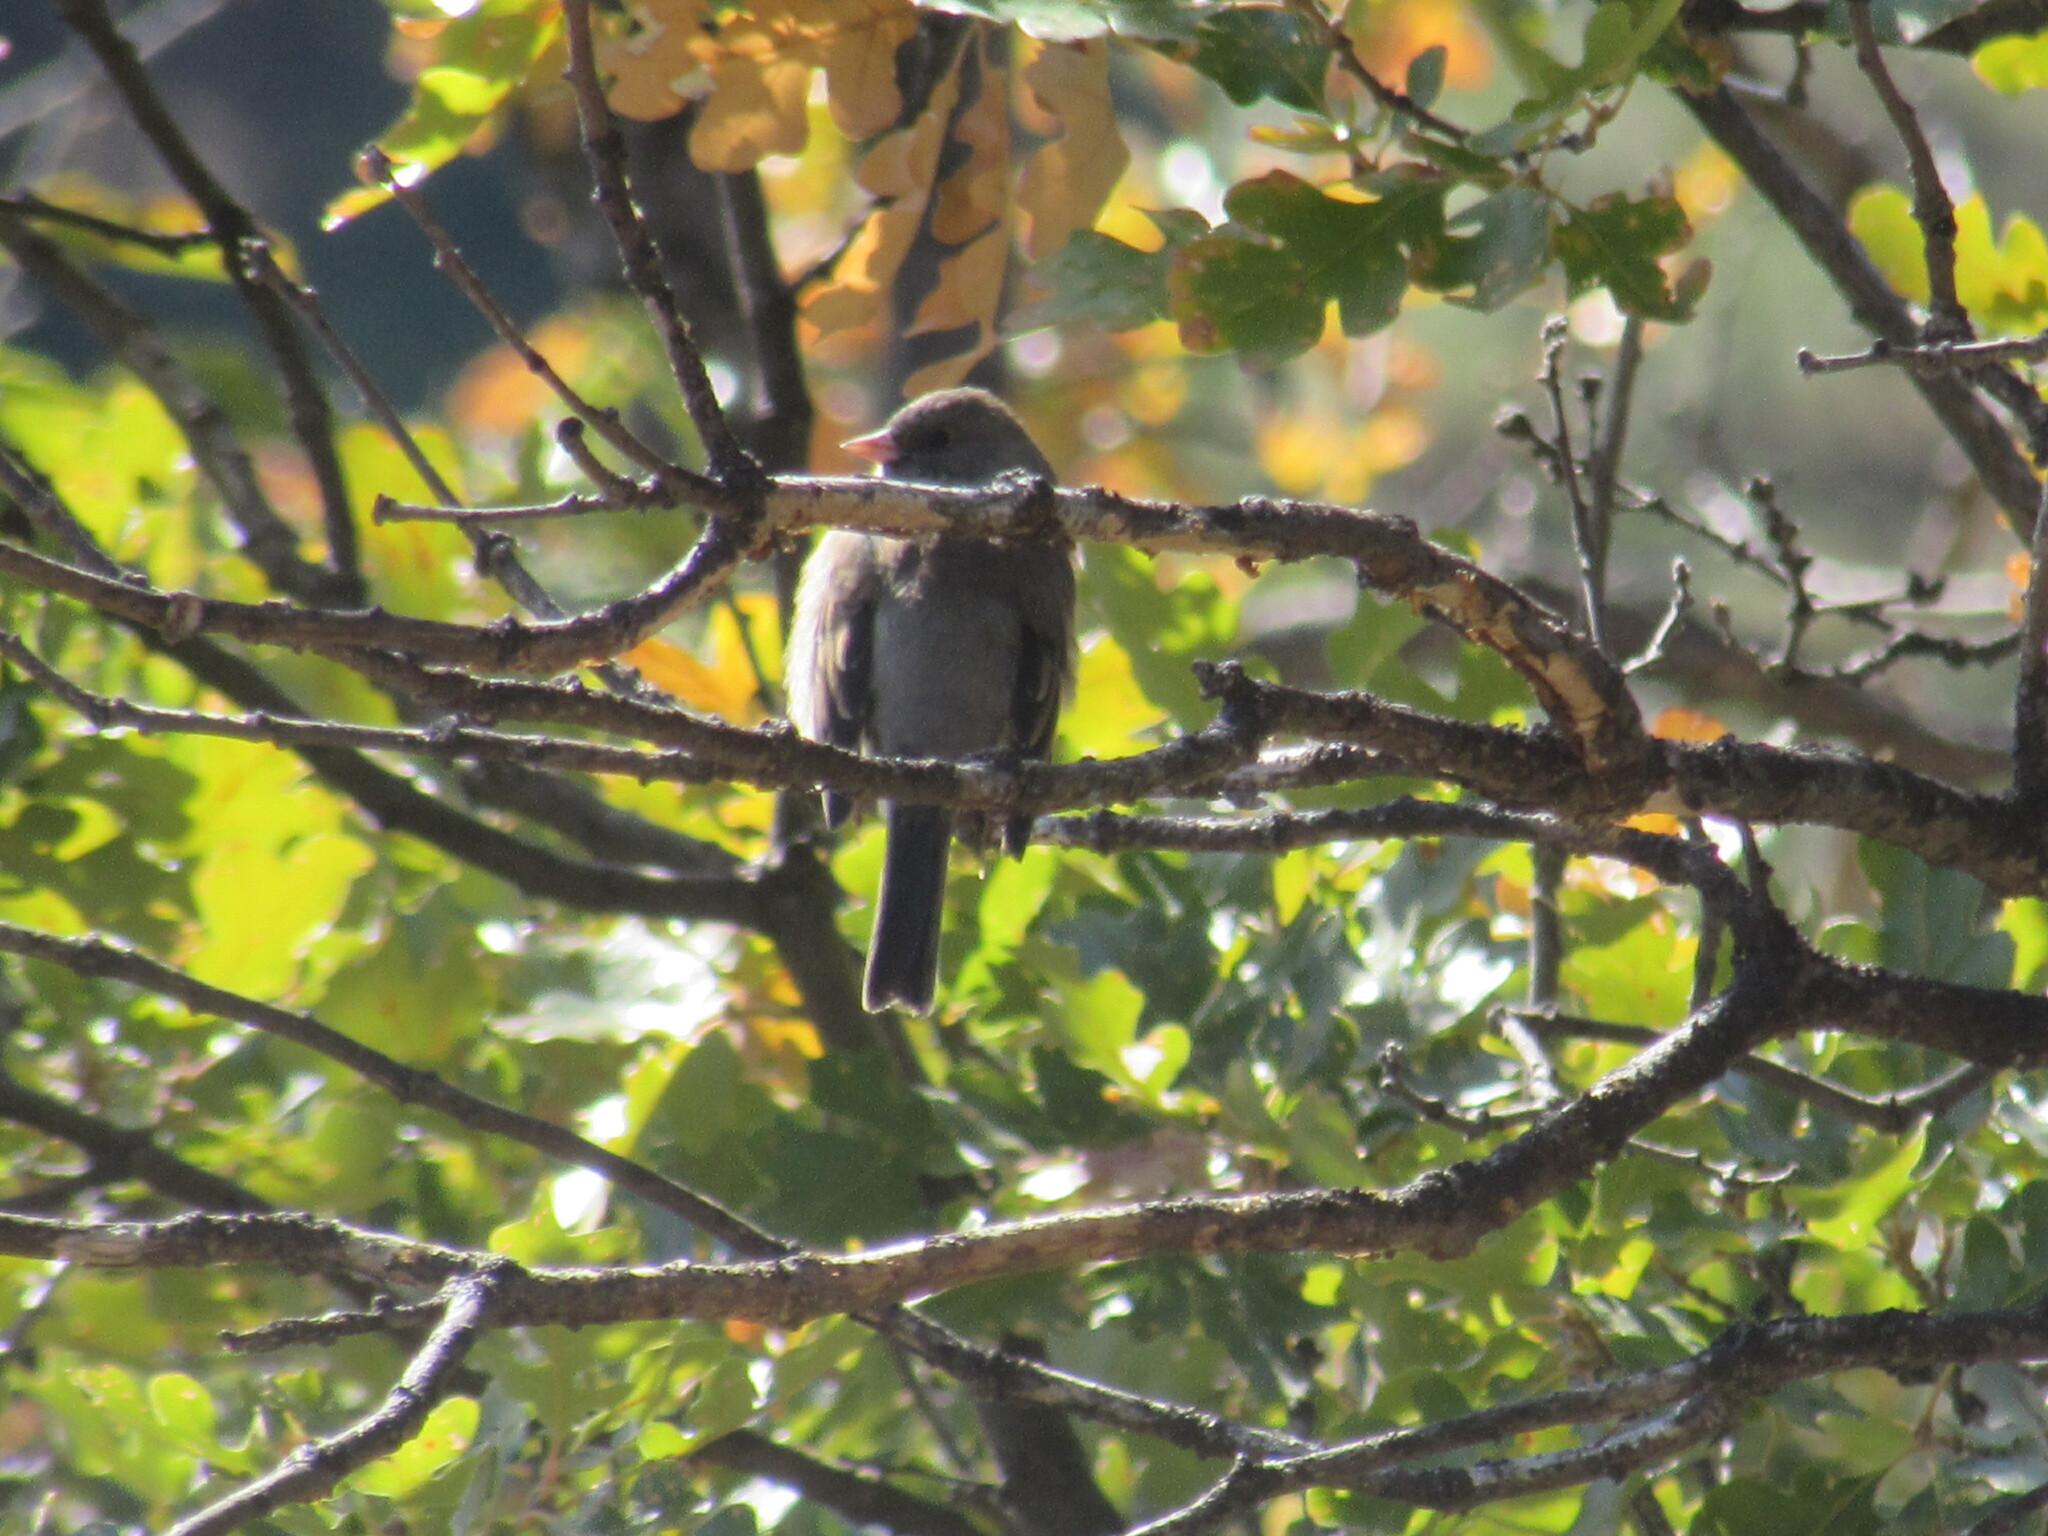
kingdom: Animalia
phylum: Chordata
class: Aves
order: Passeriformes
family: Passerellidae
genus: Junco
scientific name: Junco hyemalis
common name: Dark-eyed junco
